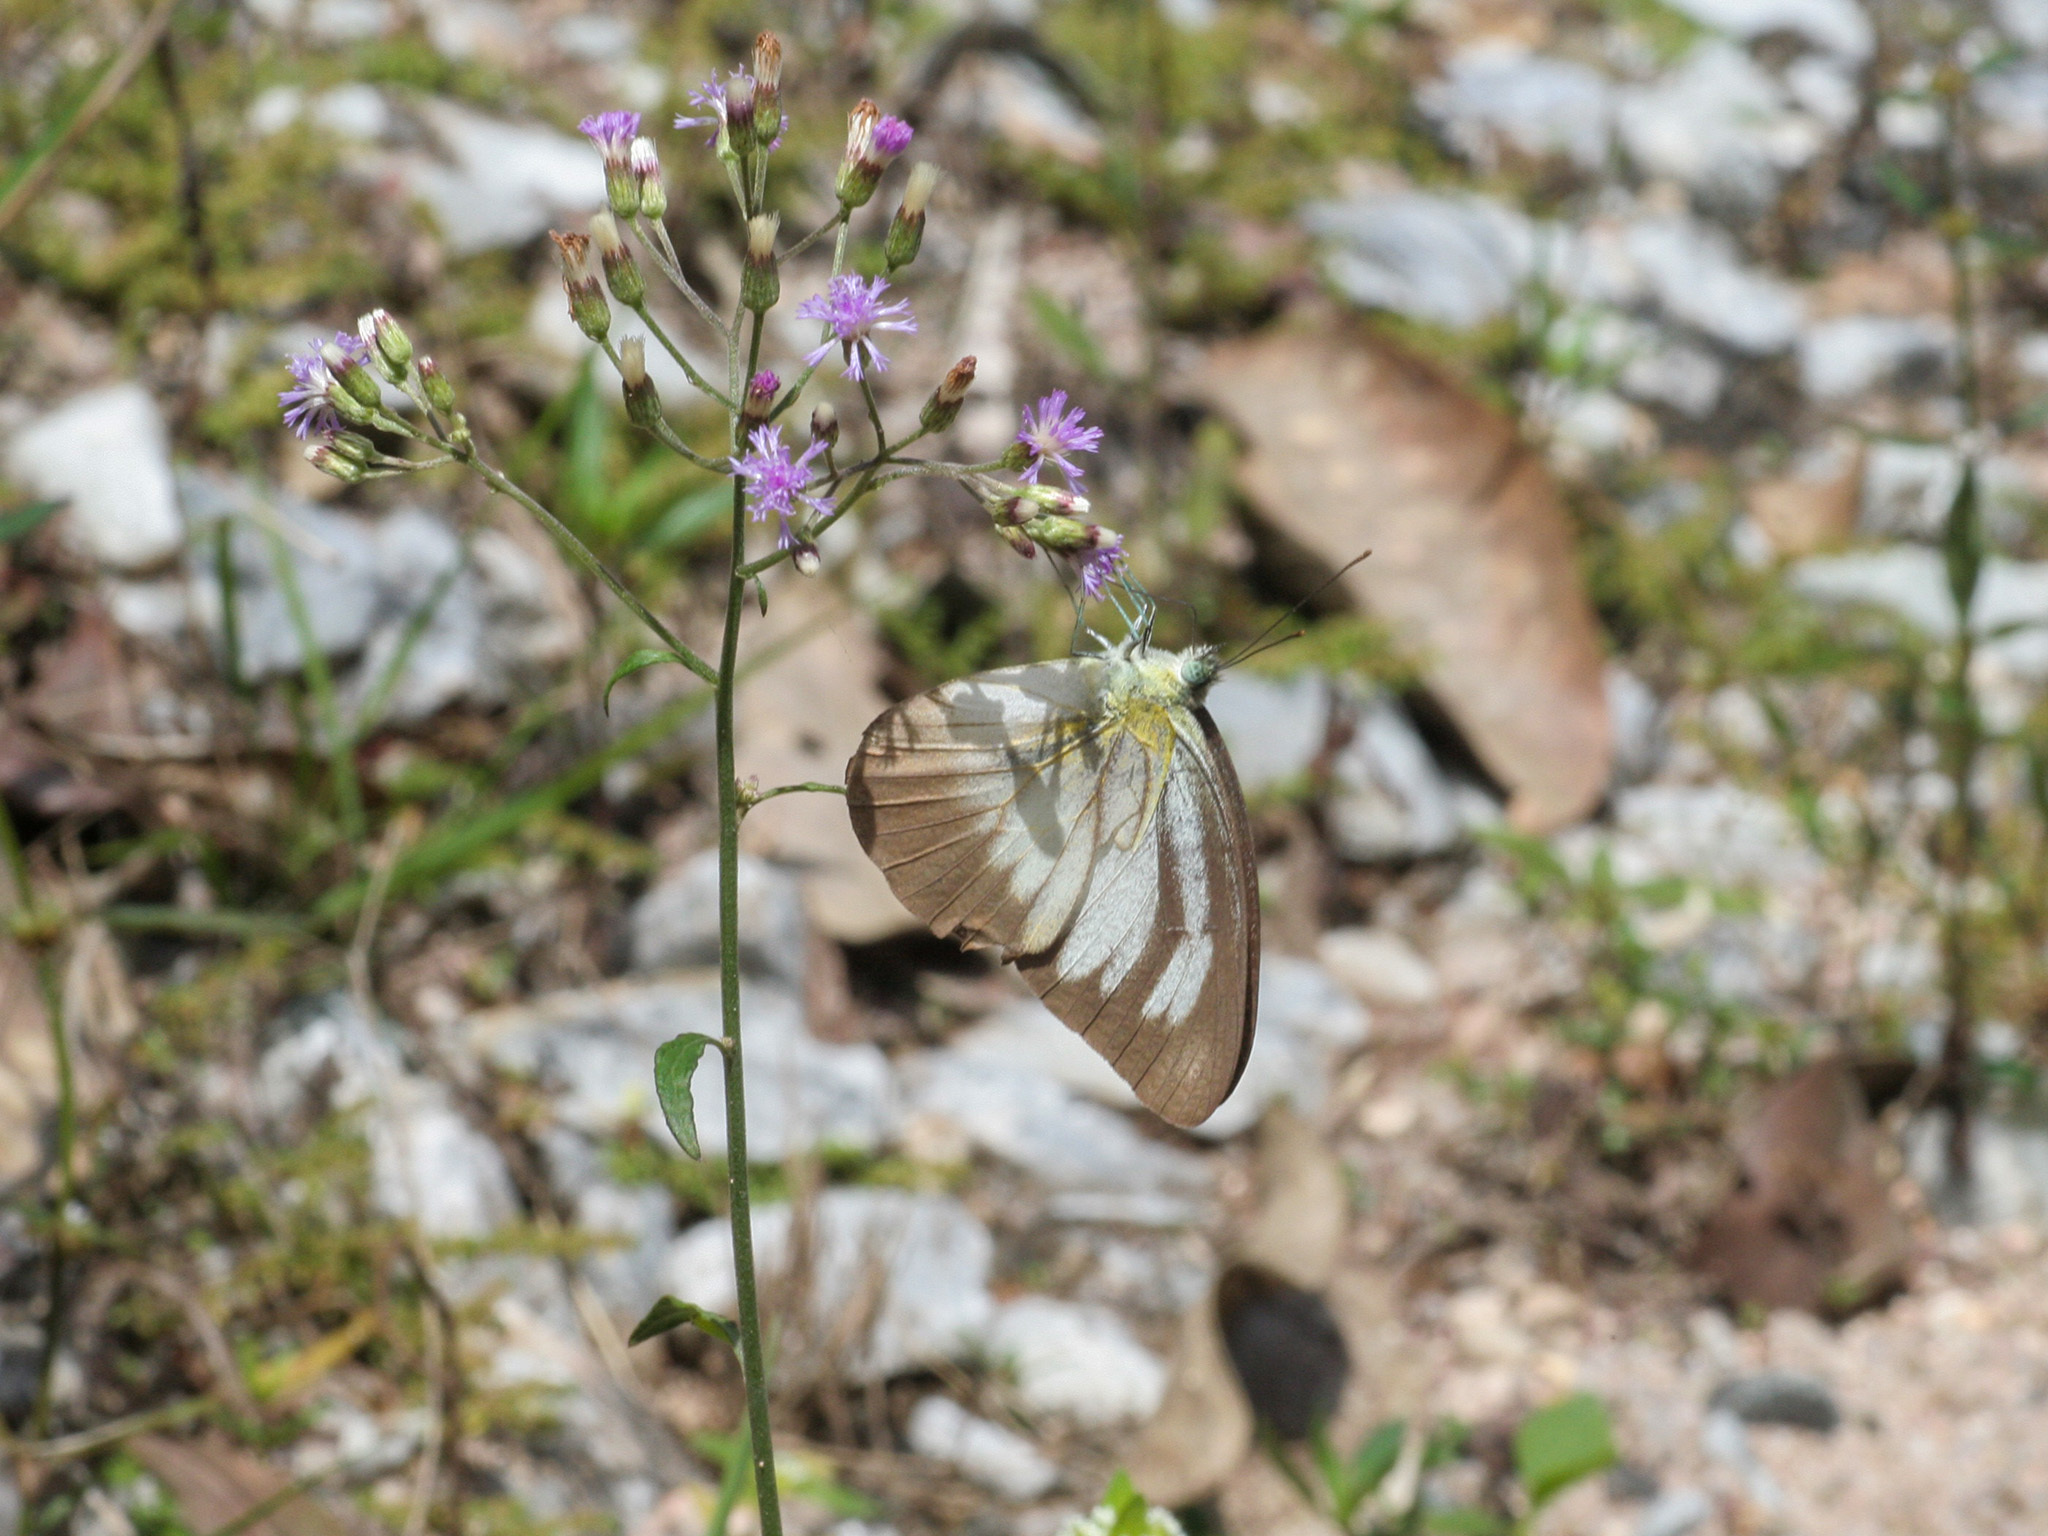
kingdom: Animalia
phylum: Arthropoda
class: Insecta
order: Lepidoptera
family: Pieridae
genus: Appias
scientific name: Appias lyncida
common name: Chocolate albatross
